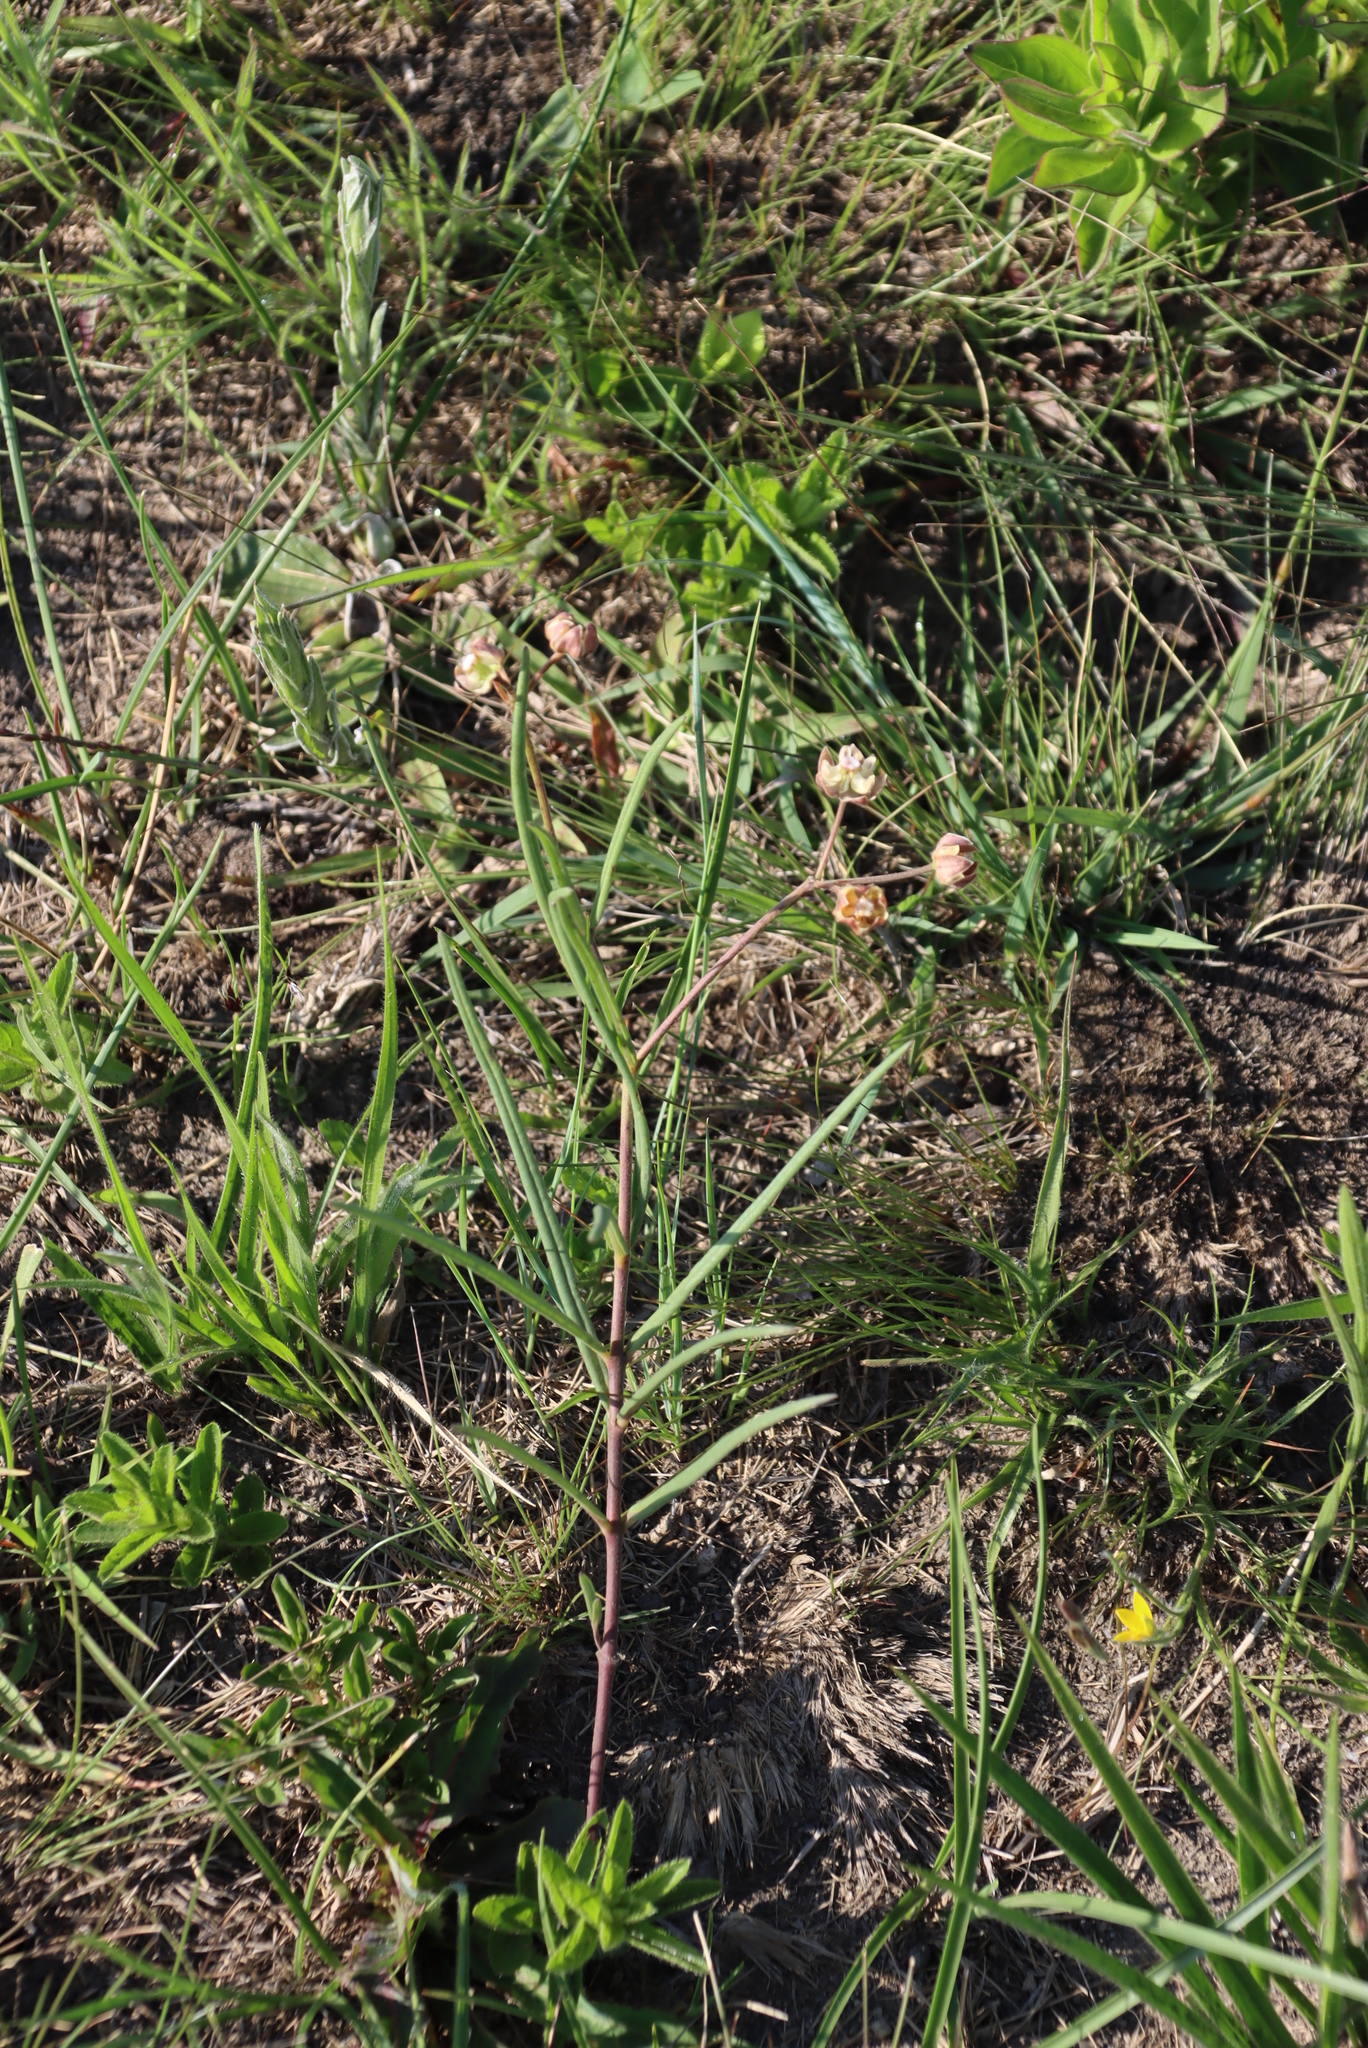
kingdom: Plantae
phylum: Tracheophyta
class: Magnoliopsida
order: Gentianales
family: Apocynaceae
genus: Asclepias
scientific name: Asclepias cucullata
